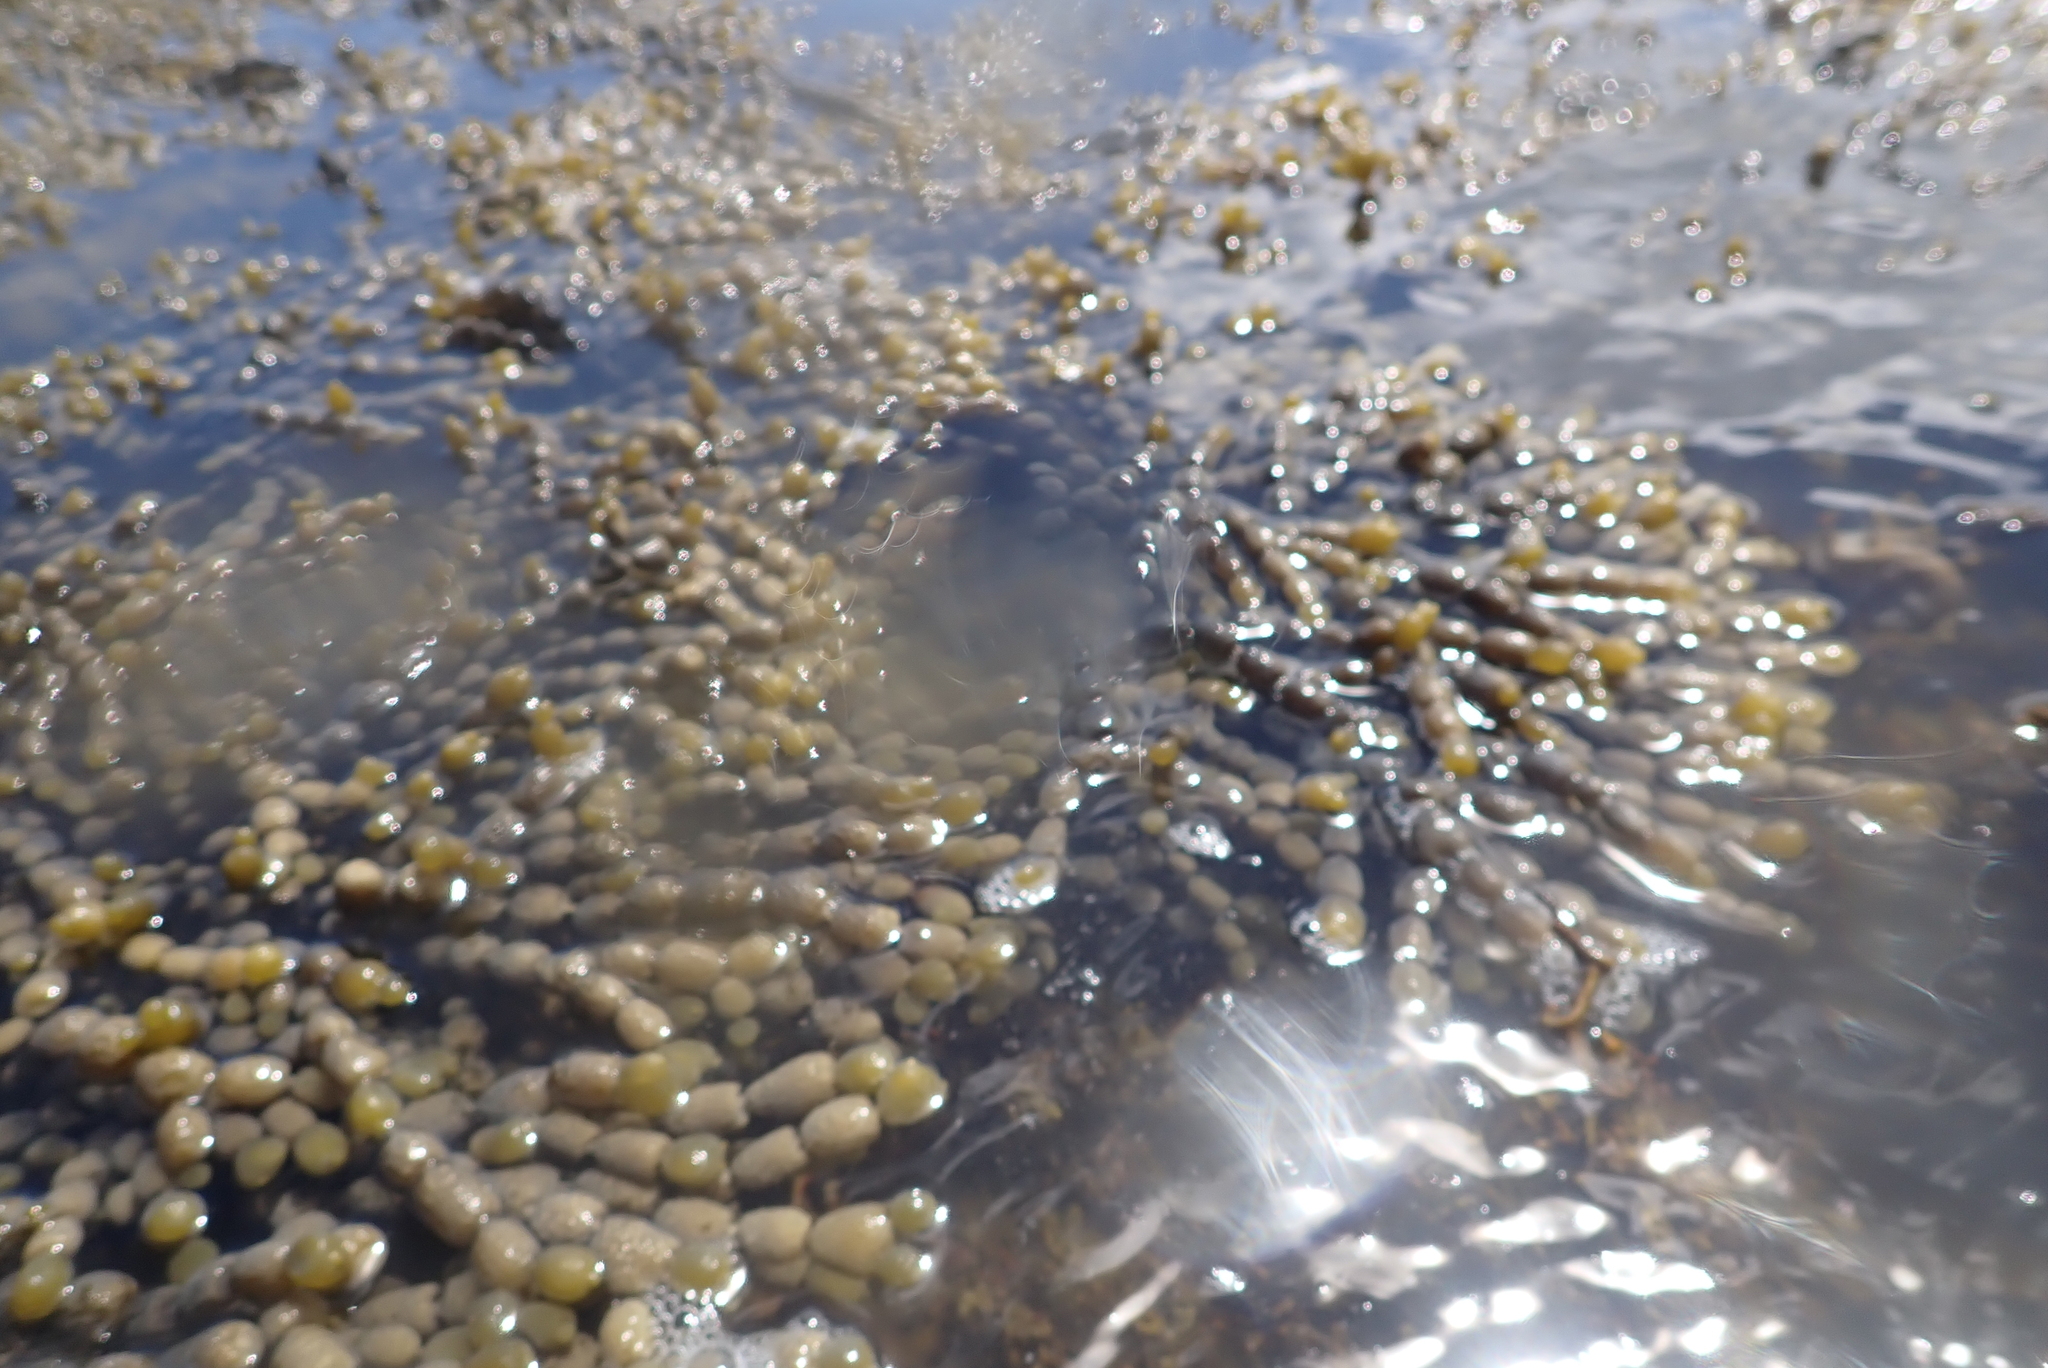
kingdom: Chromista
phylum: Ochrophyta
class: Phaeophyceae
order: Fucales
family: Hormosiraceae
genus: Hormosira
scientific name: Hormosira banksii
